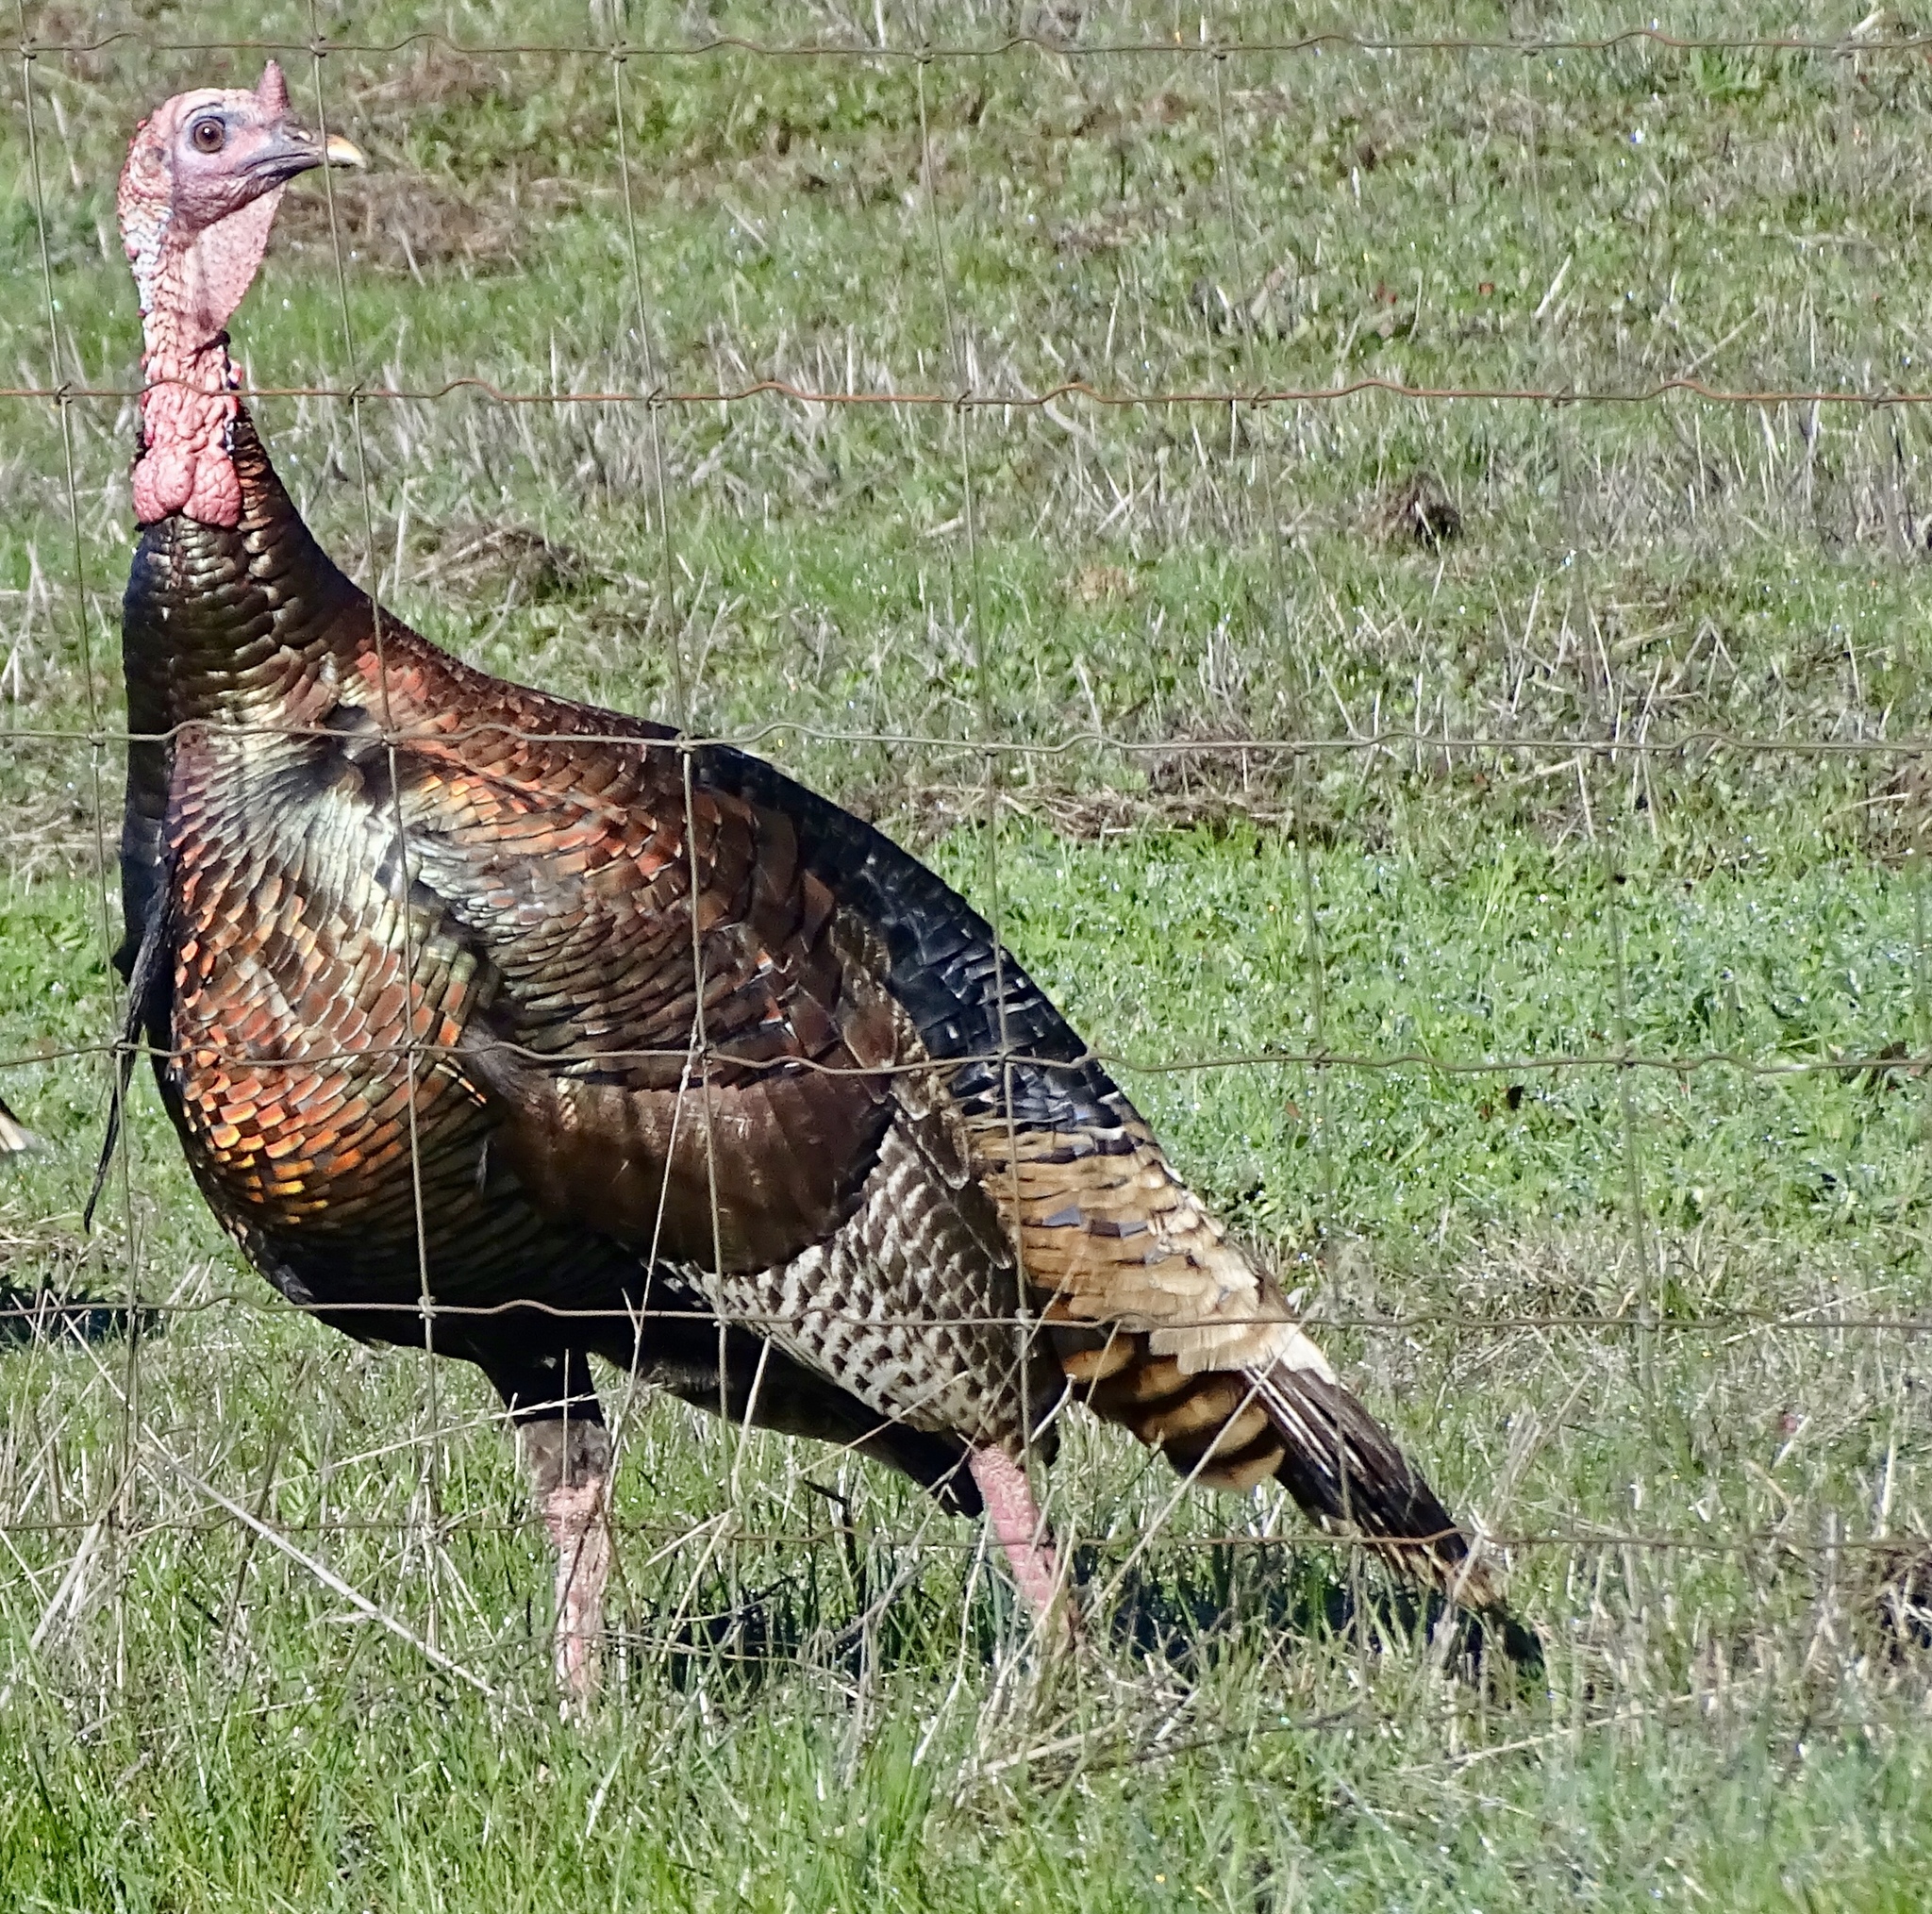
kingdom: Animalia
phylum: Chordata
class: Aves
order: Galliformes
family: Phasianidae
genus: Meleagris
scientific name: Meleagris gallopavo
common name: Wild turkey
